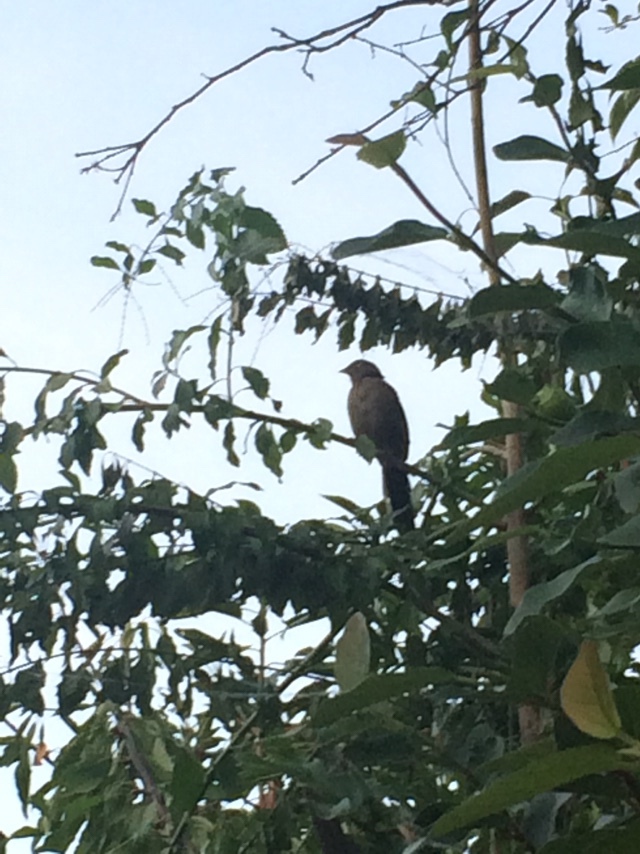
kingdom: Animalia
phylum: Chordata
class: Aves
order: Passeriformes
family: Passerellidae
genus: Melozone
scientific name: Melozone crissalis
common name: California towhee
